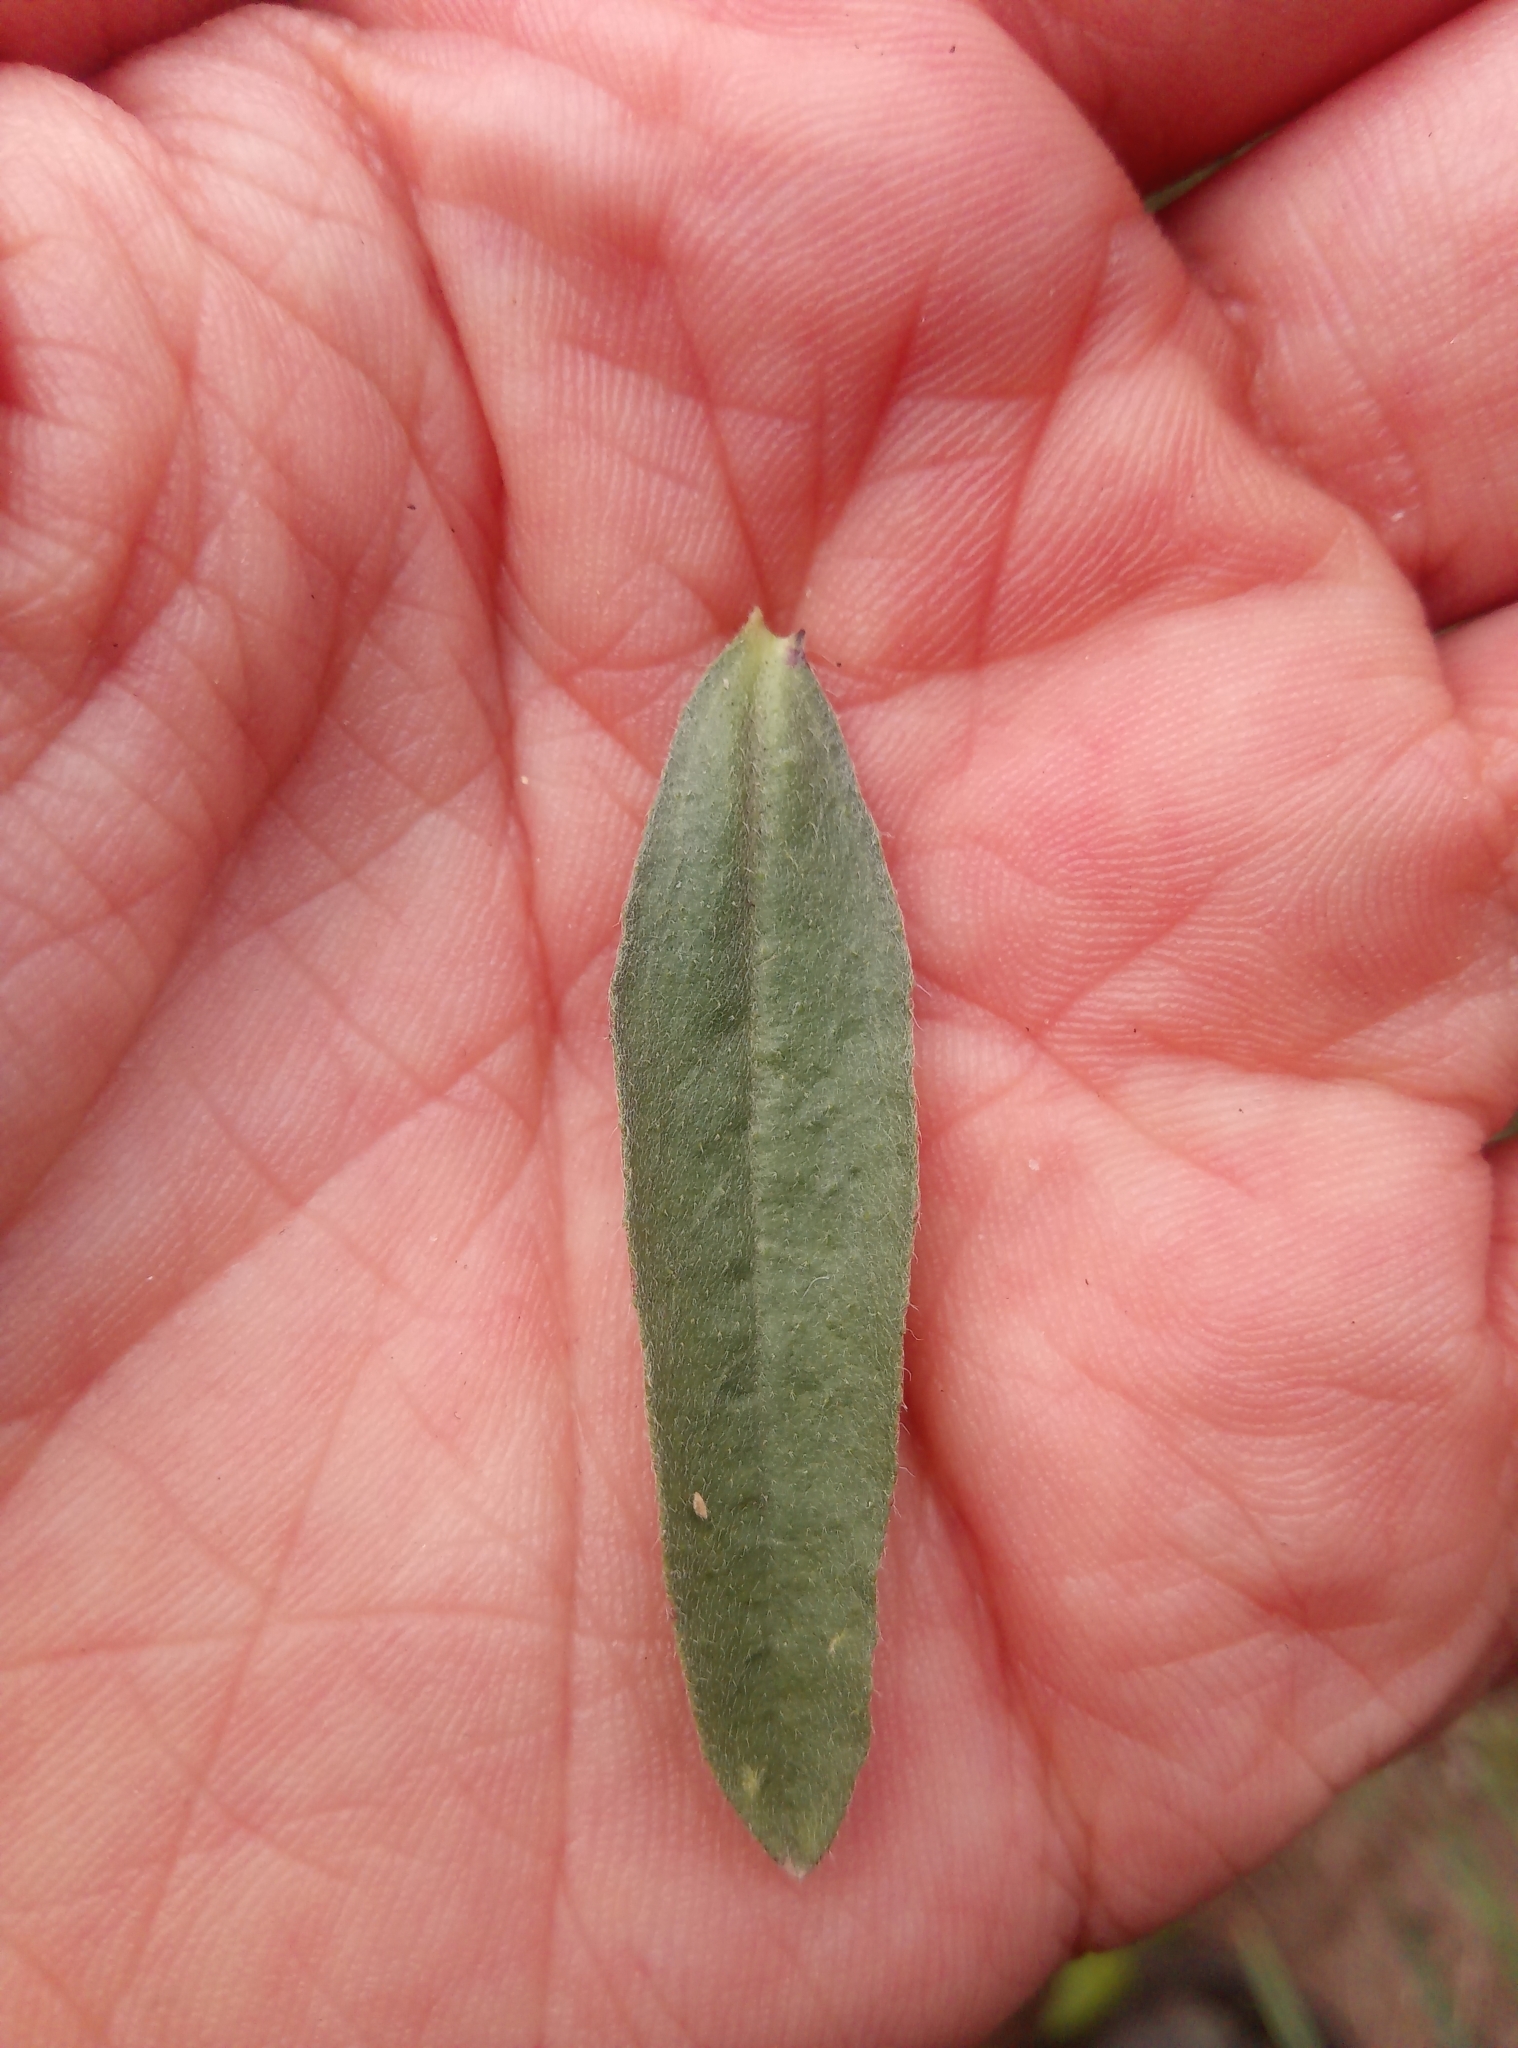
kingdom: Plantae
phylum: Tracheophyta
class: Magnoliopsida
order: Brassicales
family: Brassicaceae
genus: Berteroa
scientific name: Berteroa incana
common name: Hoary alison
